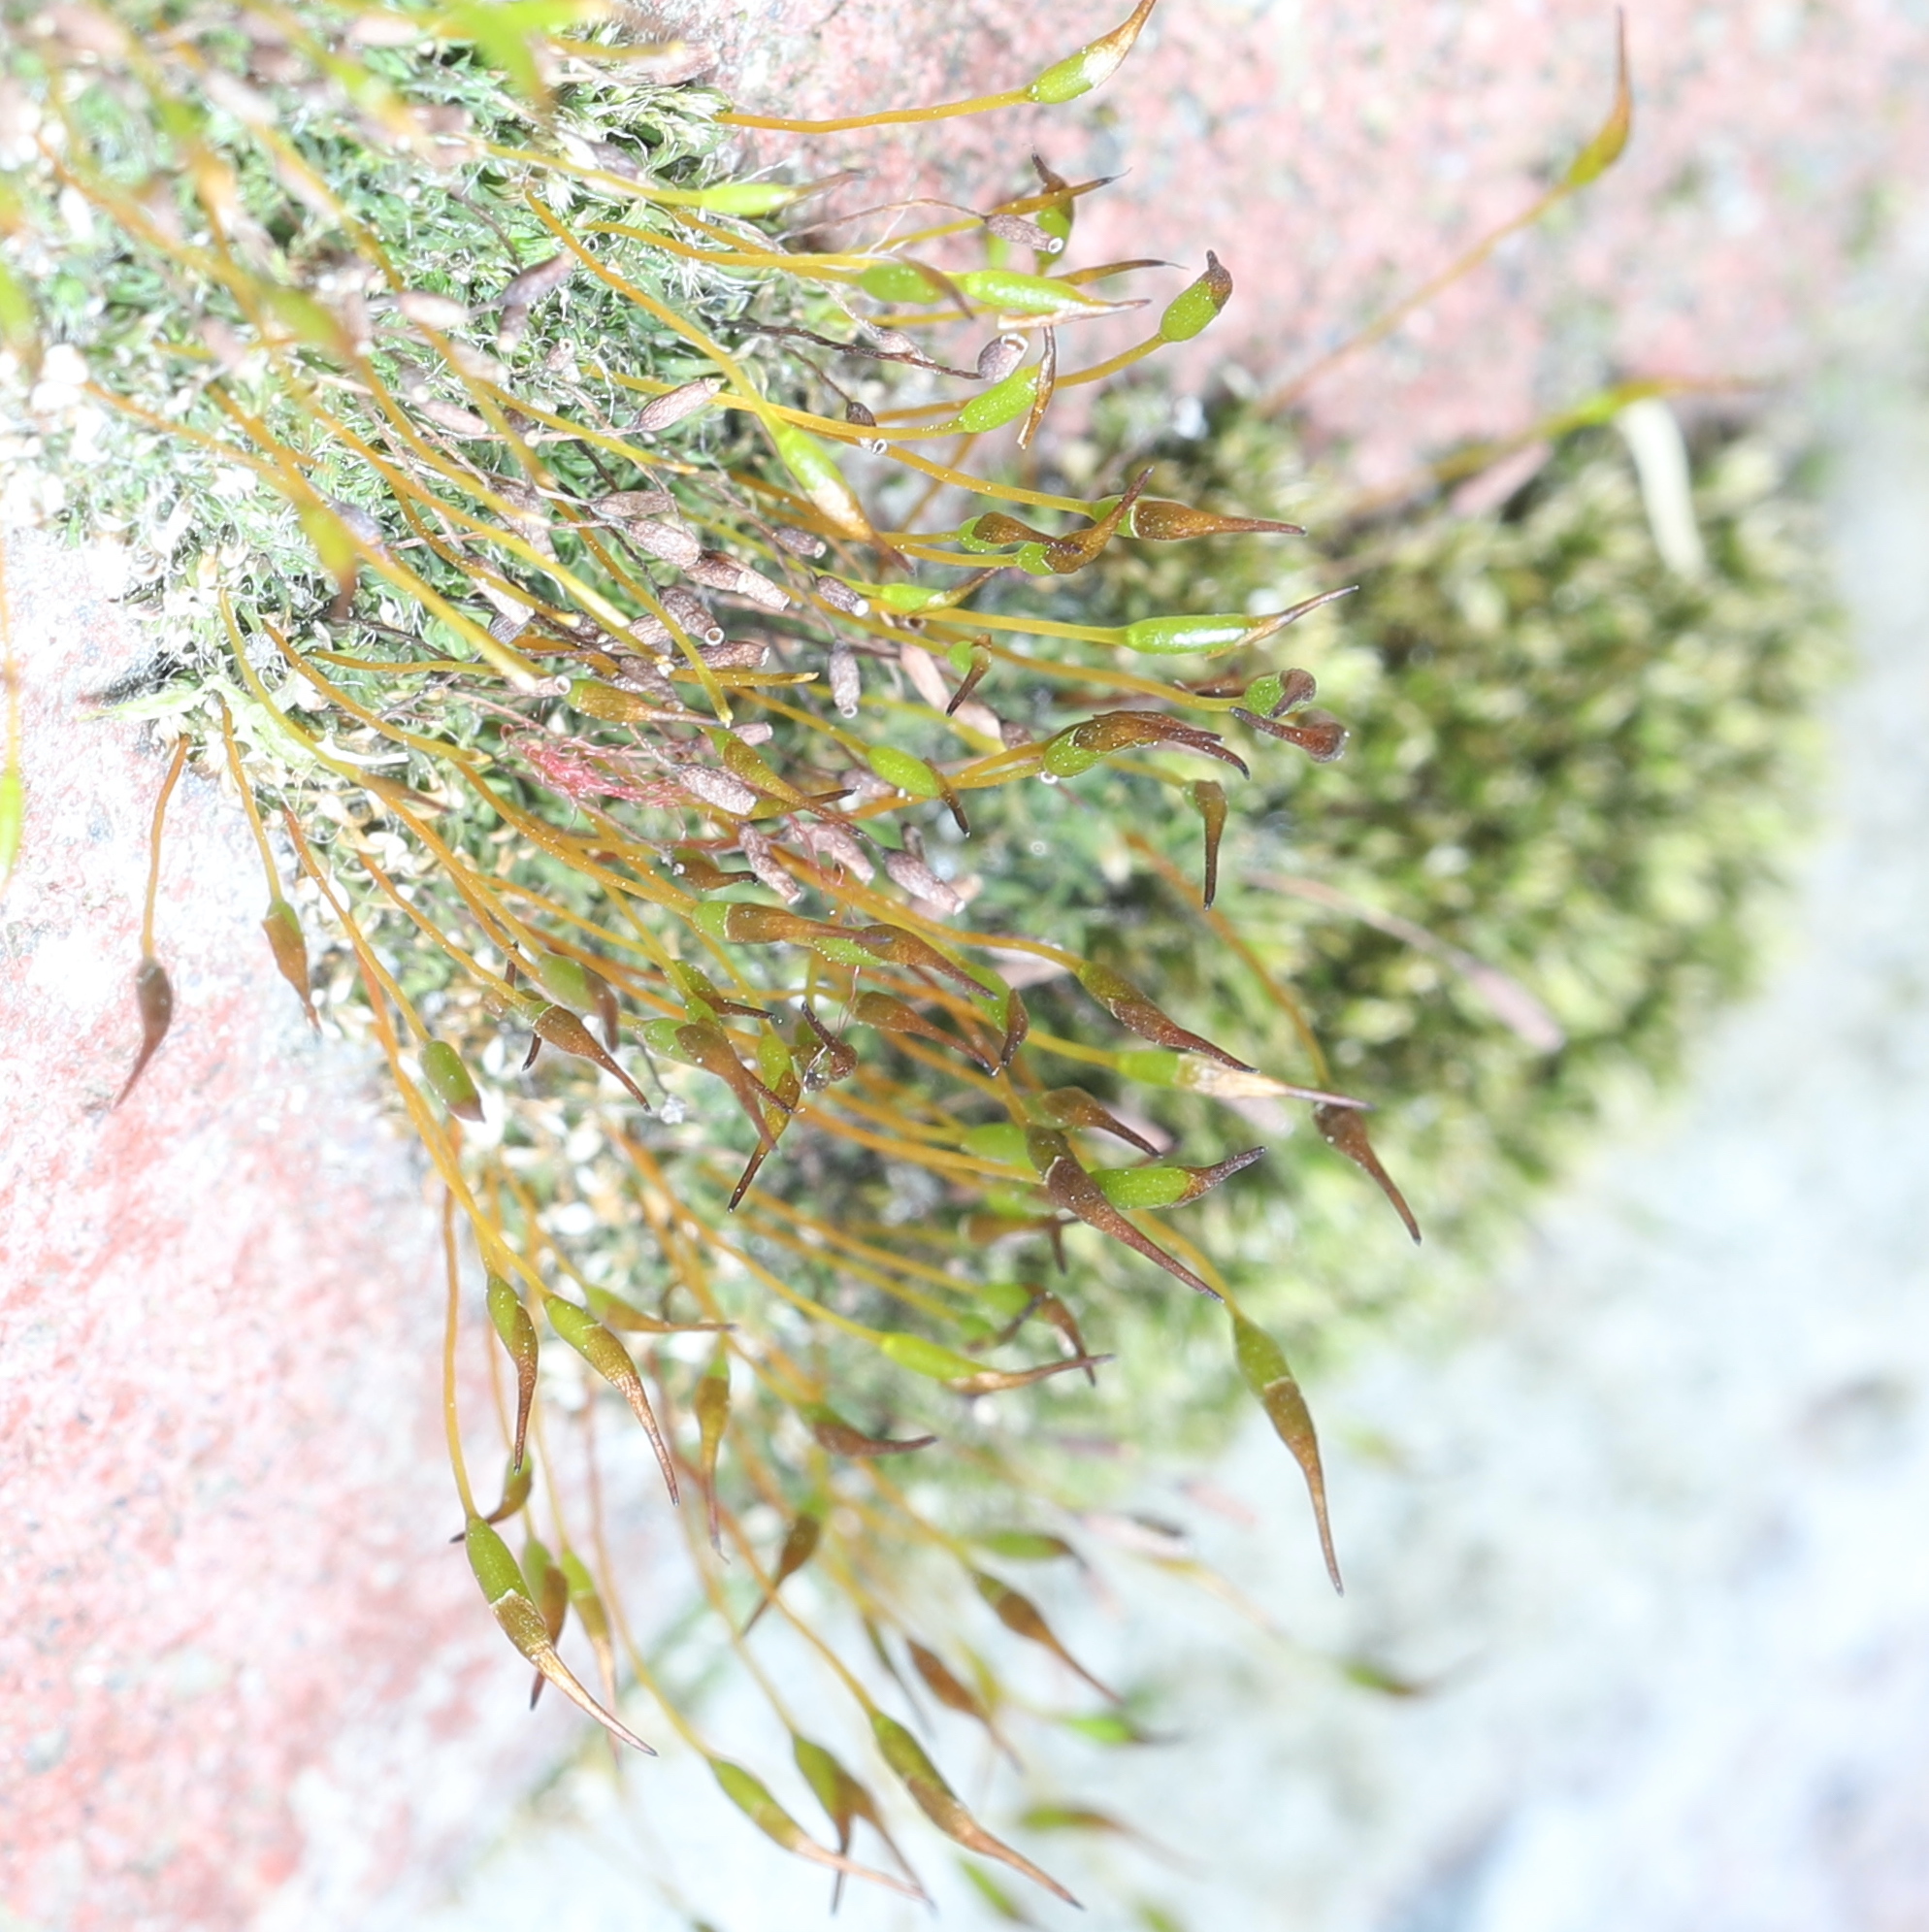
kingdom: Plantae
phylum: Bryophyta
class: Bryopsida
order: Pottiales
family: Pottiaceae
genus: Tortula
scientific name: Tortula muralis
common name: Wall screw-moss
